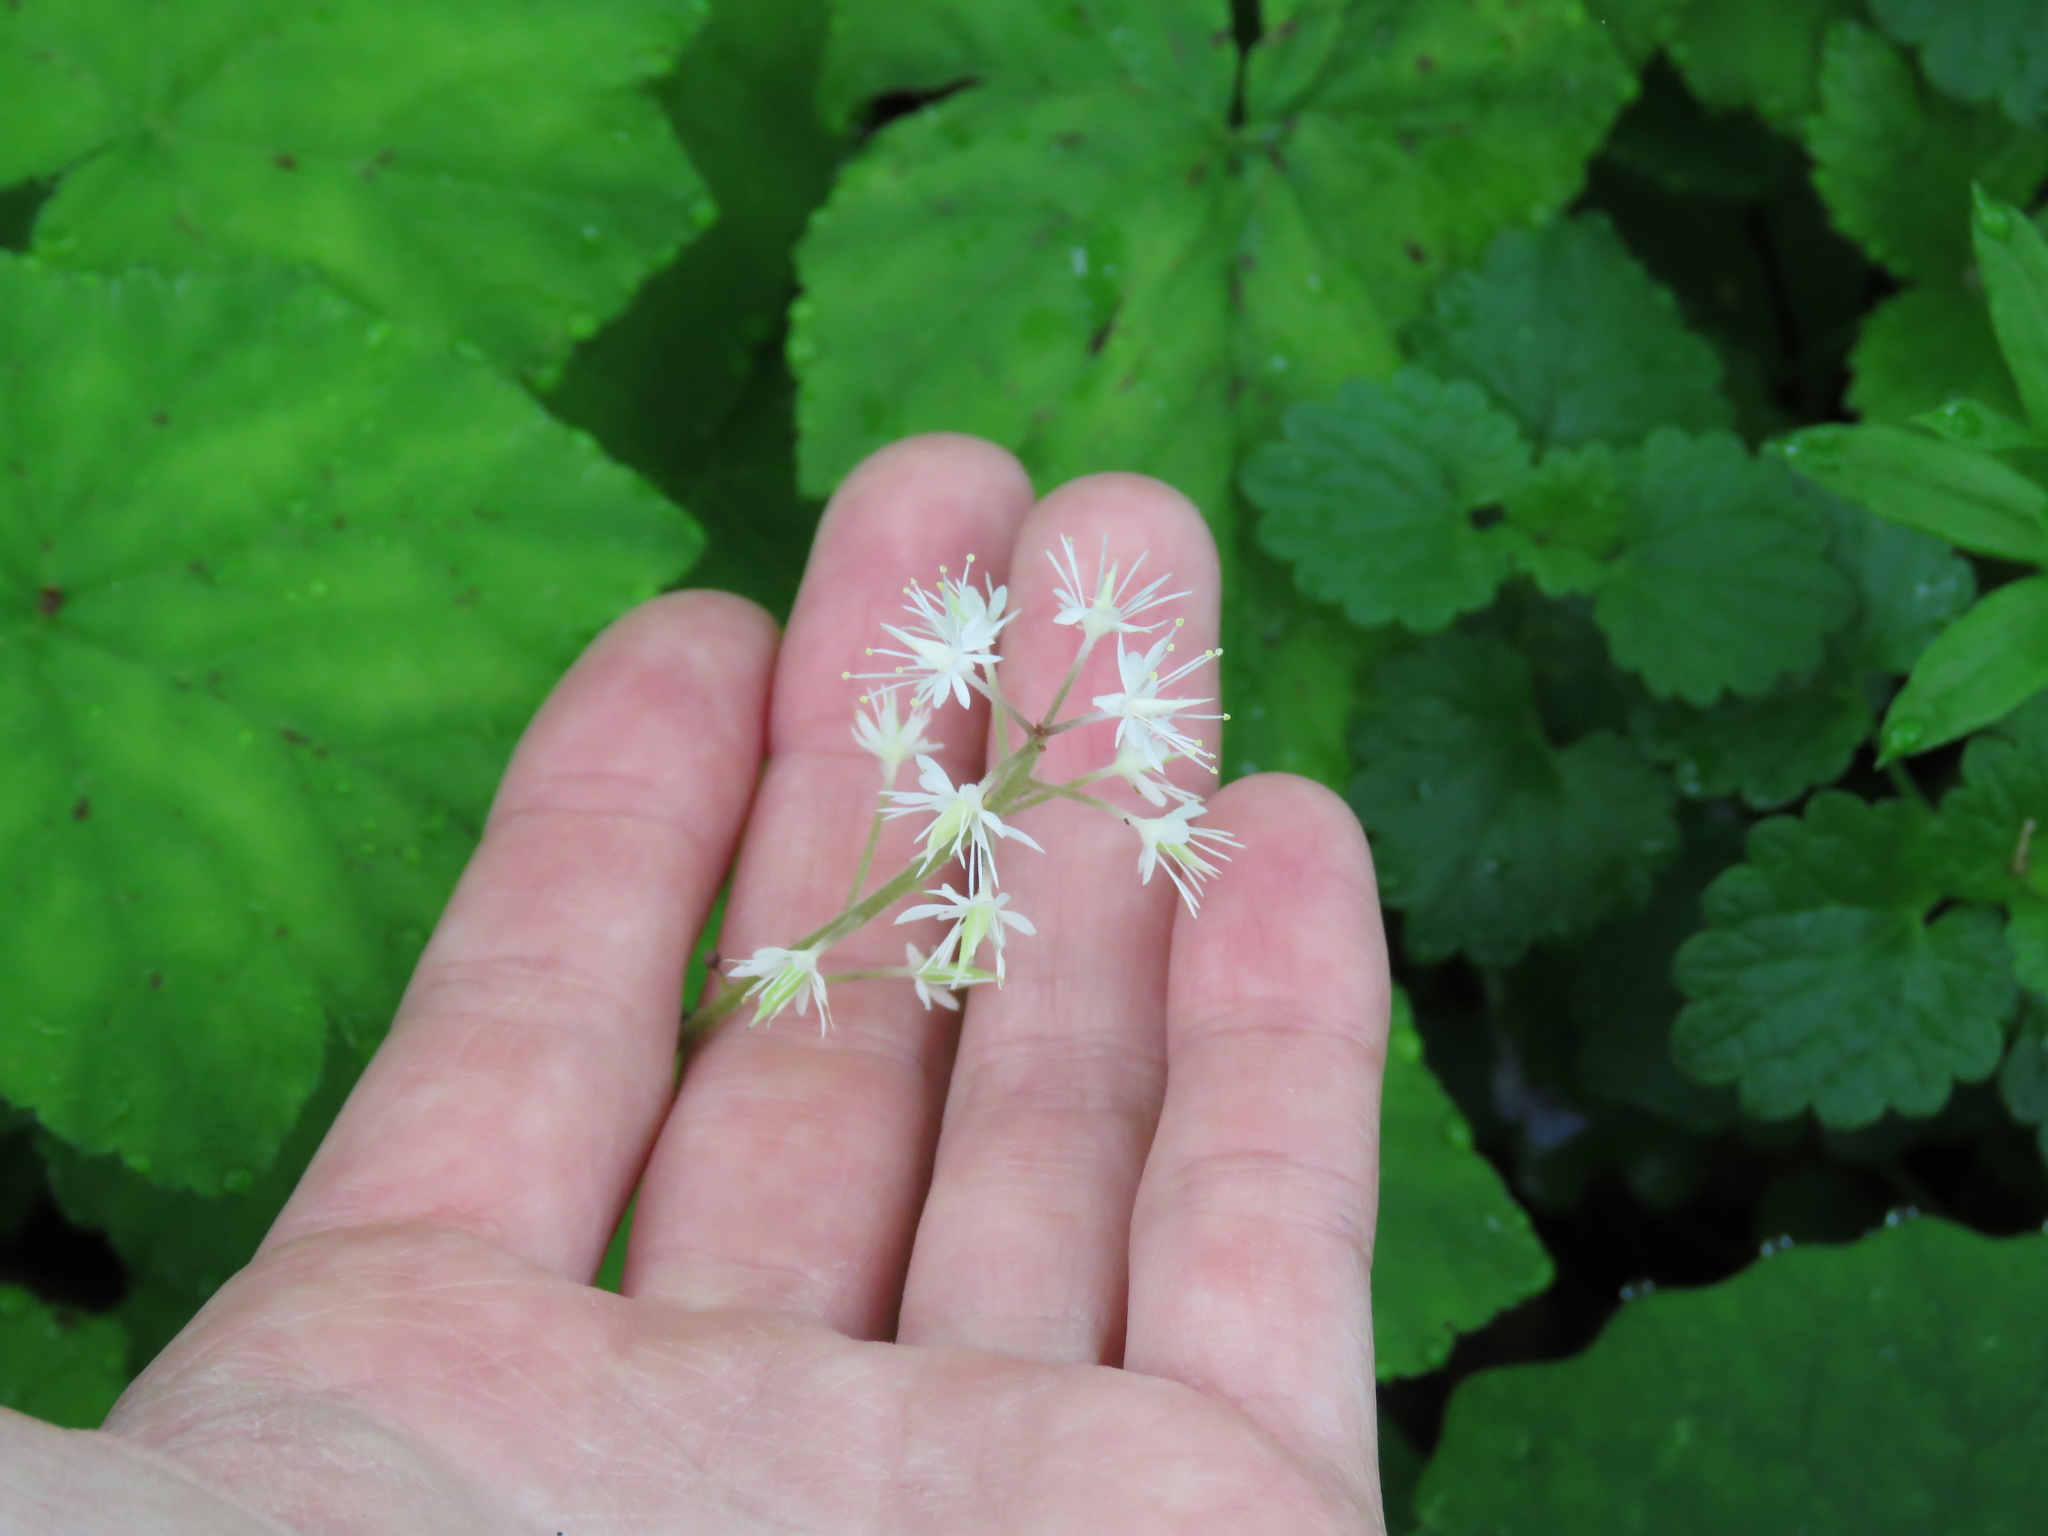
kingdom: Plantae
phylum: Tracheophyta
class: Magnoliopsida
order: Saxifragales
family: Saxifragaceae
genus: Tiarella
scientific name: Tiarella stolonifera
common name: Stoloniferous foamflower
